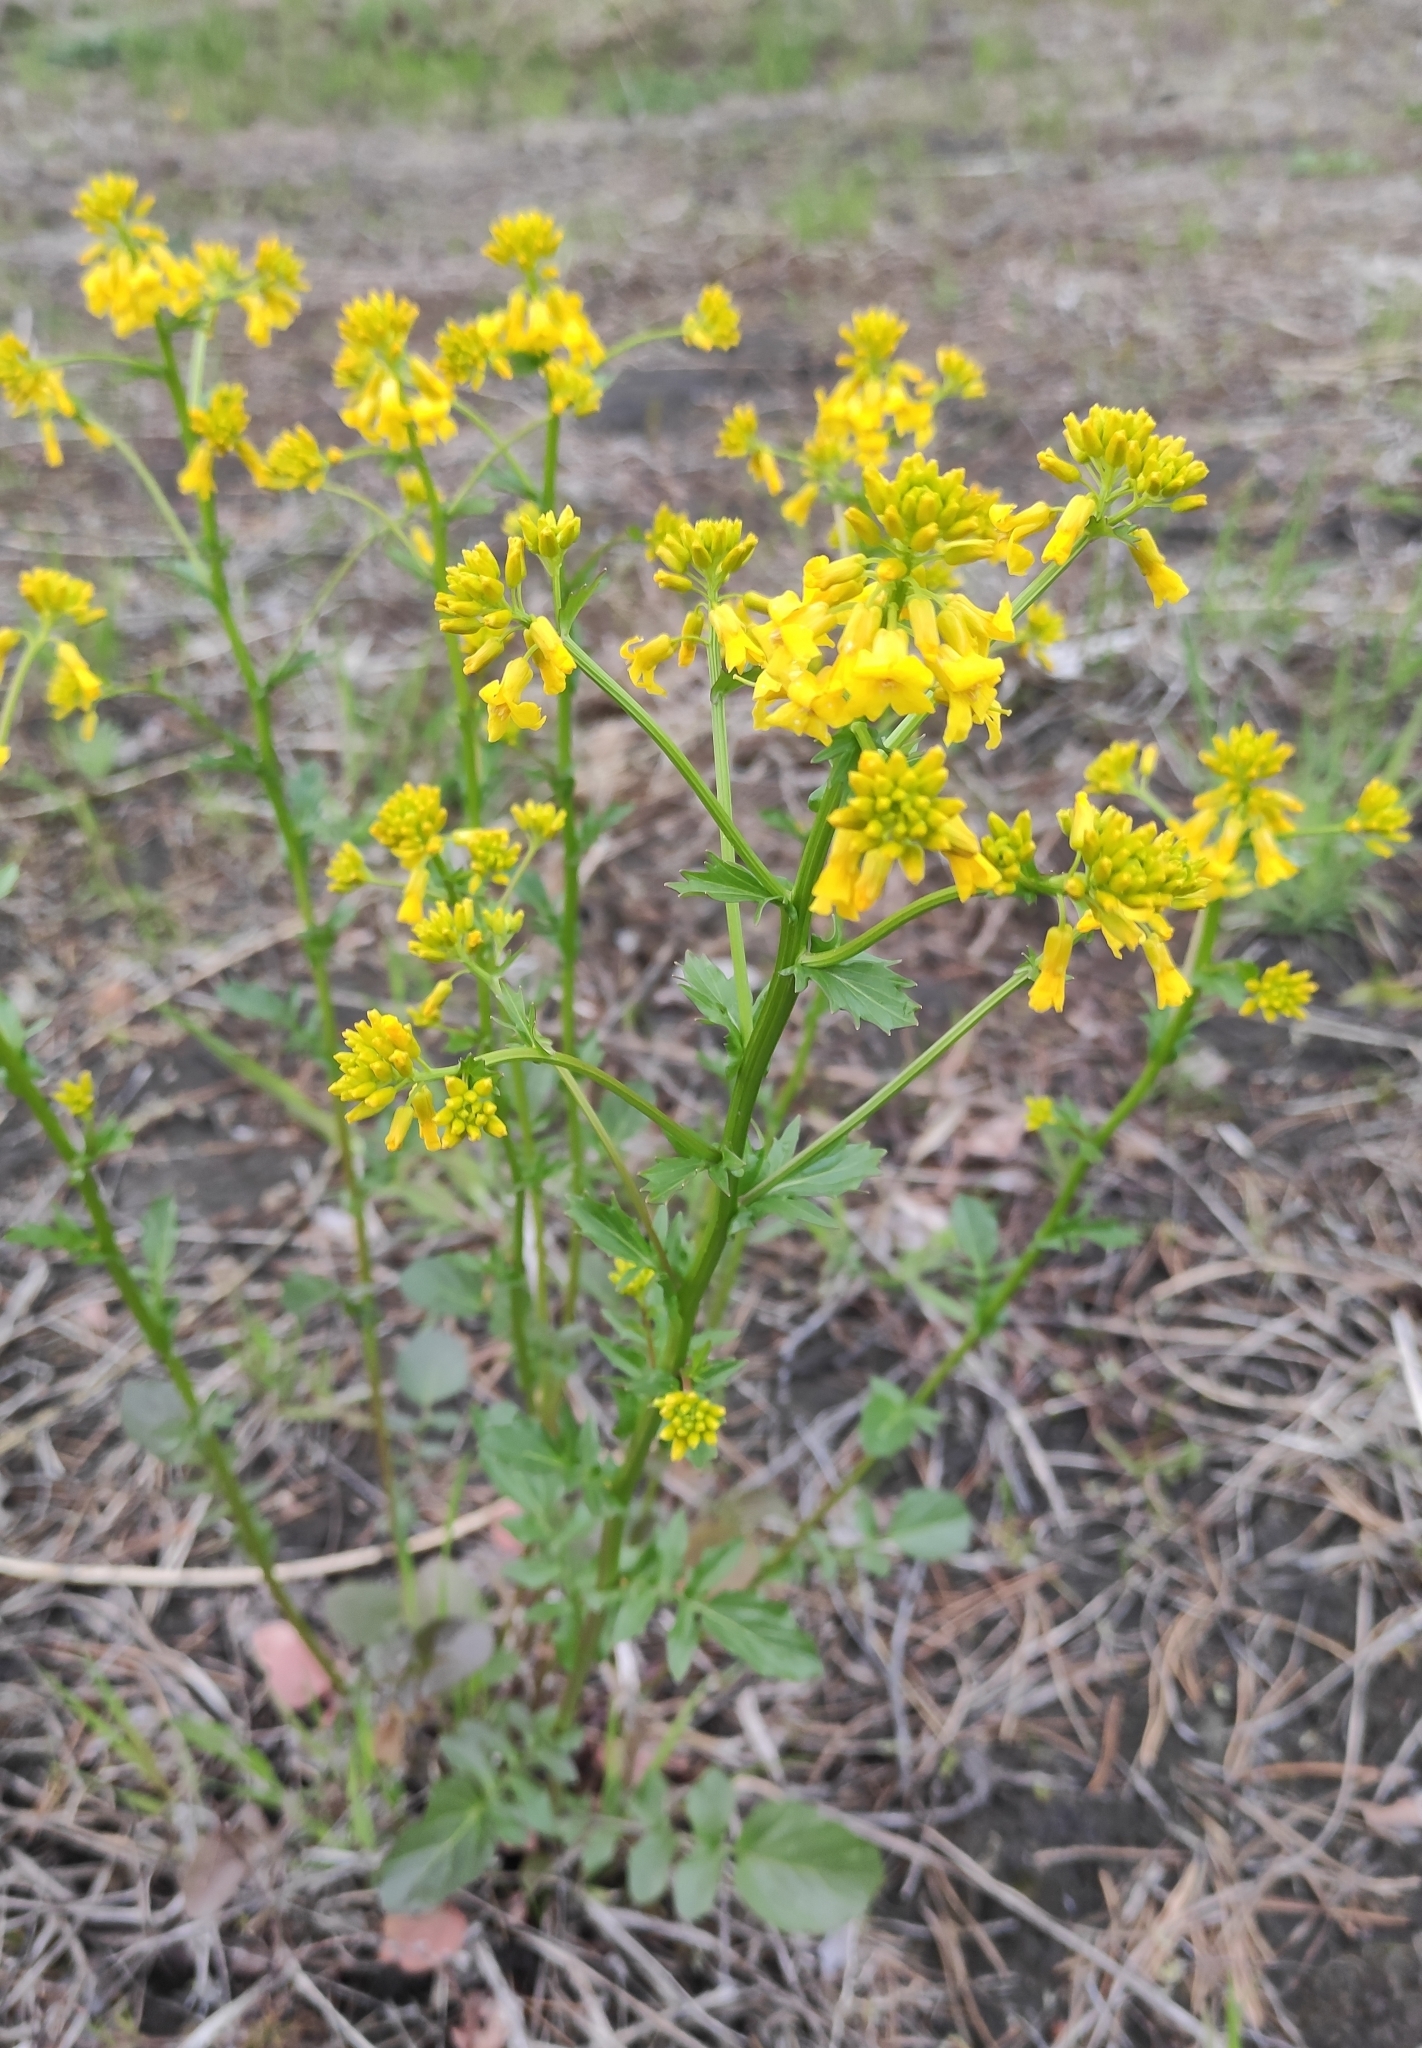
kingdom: Plantae
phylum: Tracheophyta
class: Magnoliopsida
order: Brassicales
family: Brassicaceae
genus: Barbarea
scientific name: Barbarea vulgaris
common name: Cressy-greens
